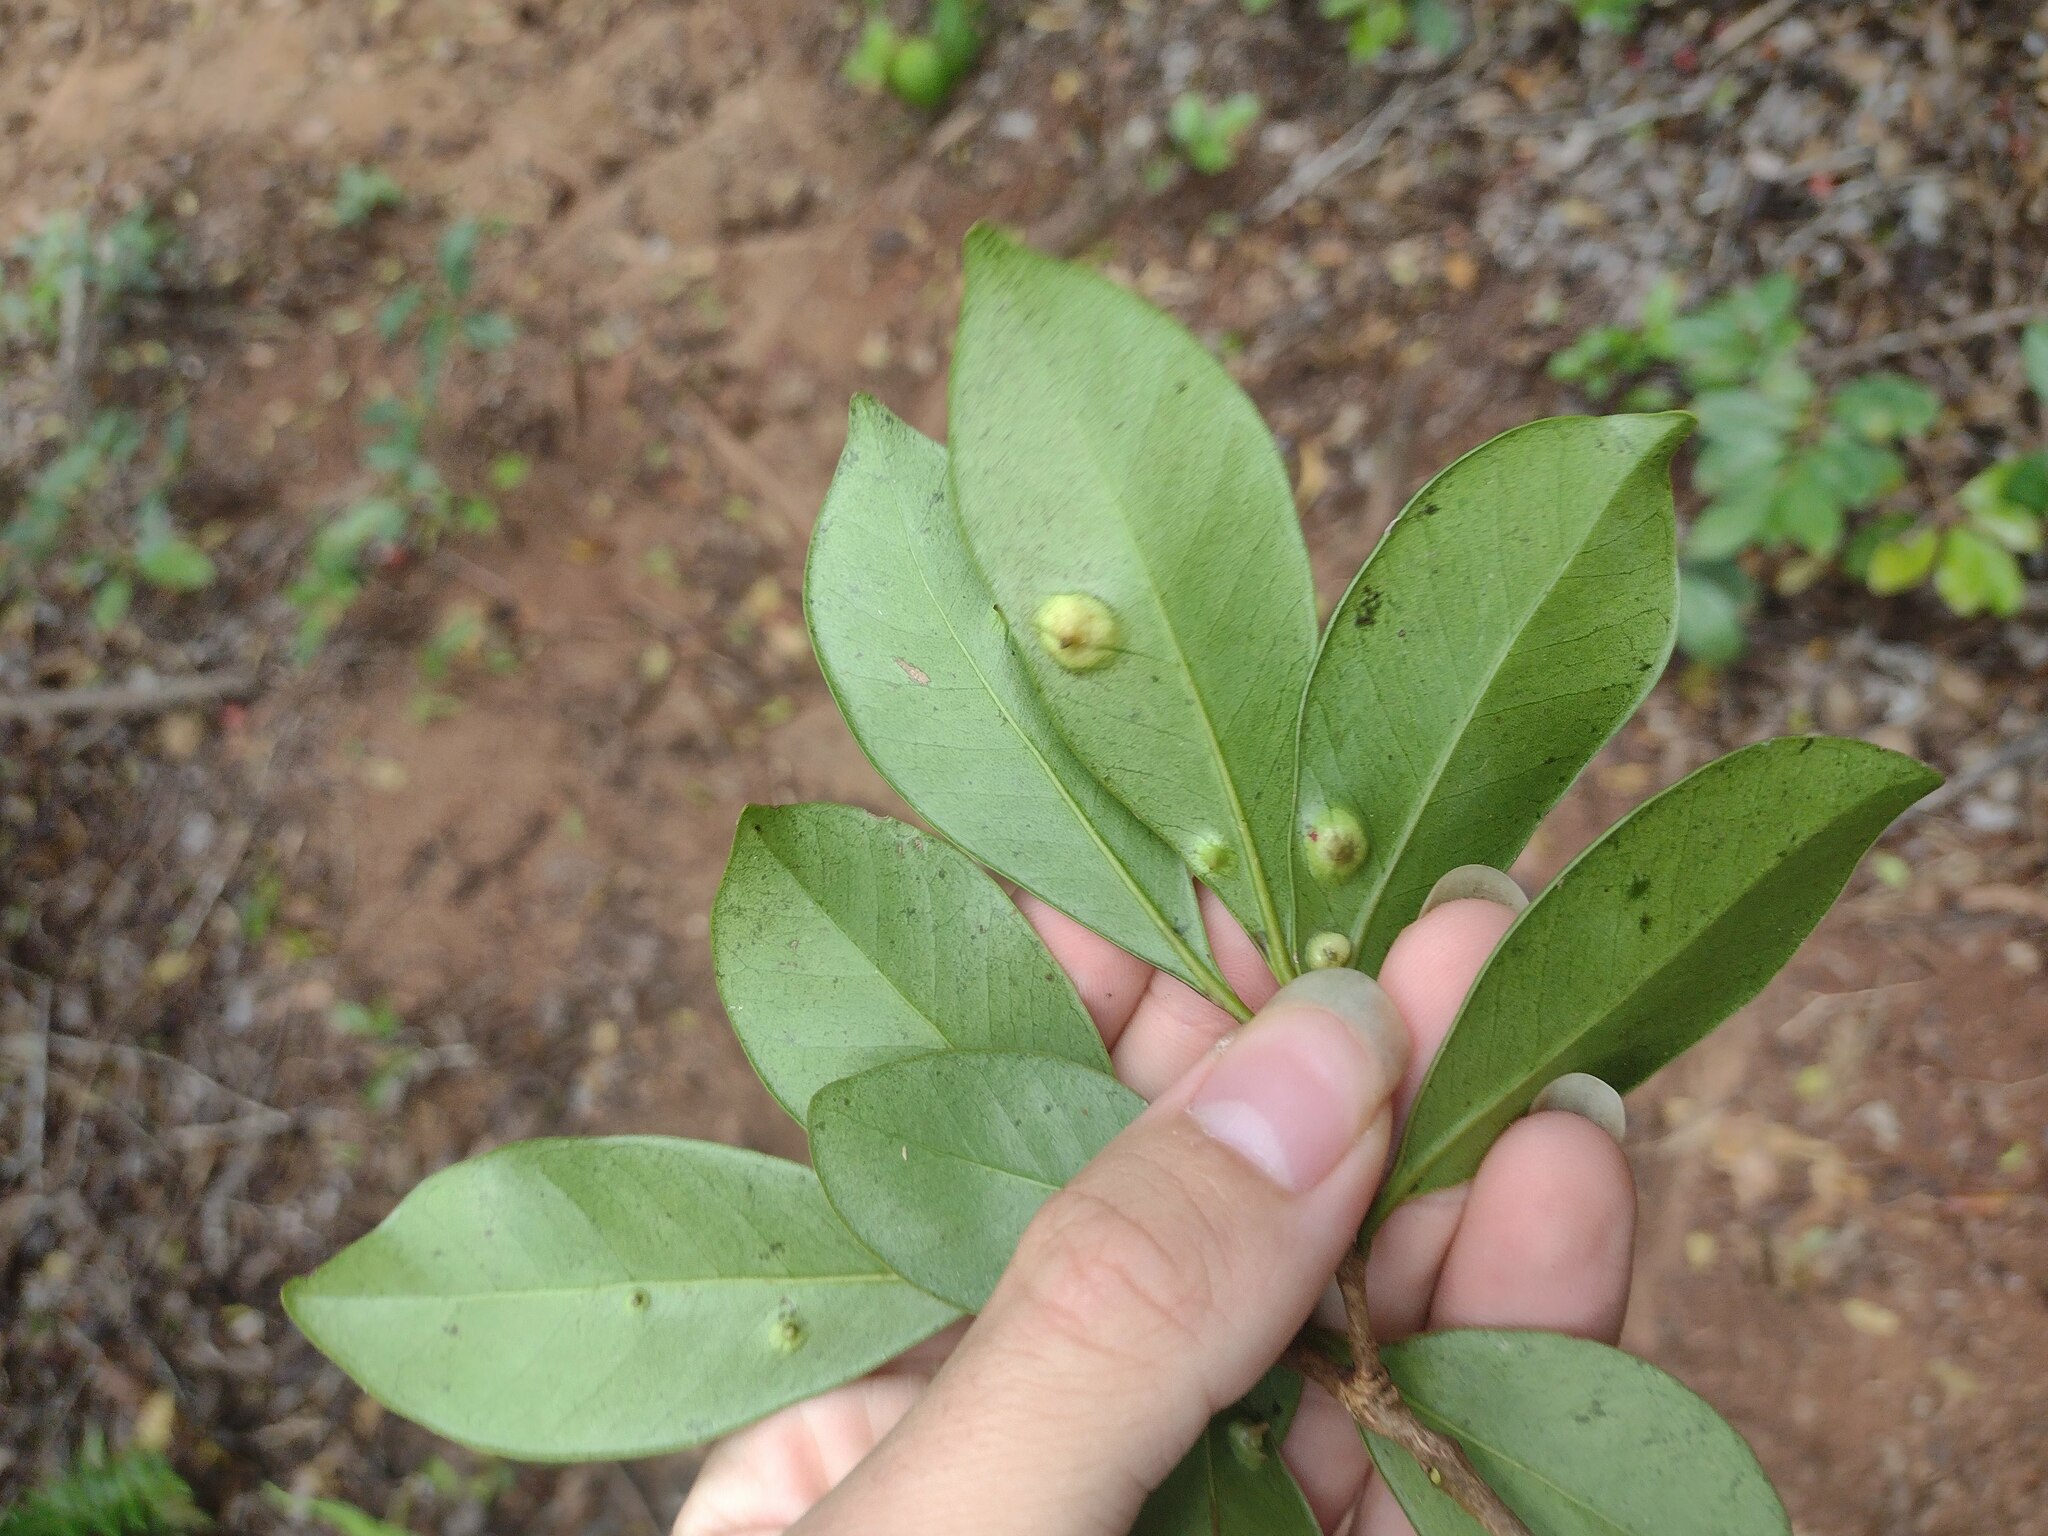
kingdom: Animalia
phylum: Arthropoda
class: Insecta
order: Hemiptera
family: Eriococcidae
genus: Tectococcus
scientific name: Tectococcus ovatus
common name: Eriococcid scale
